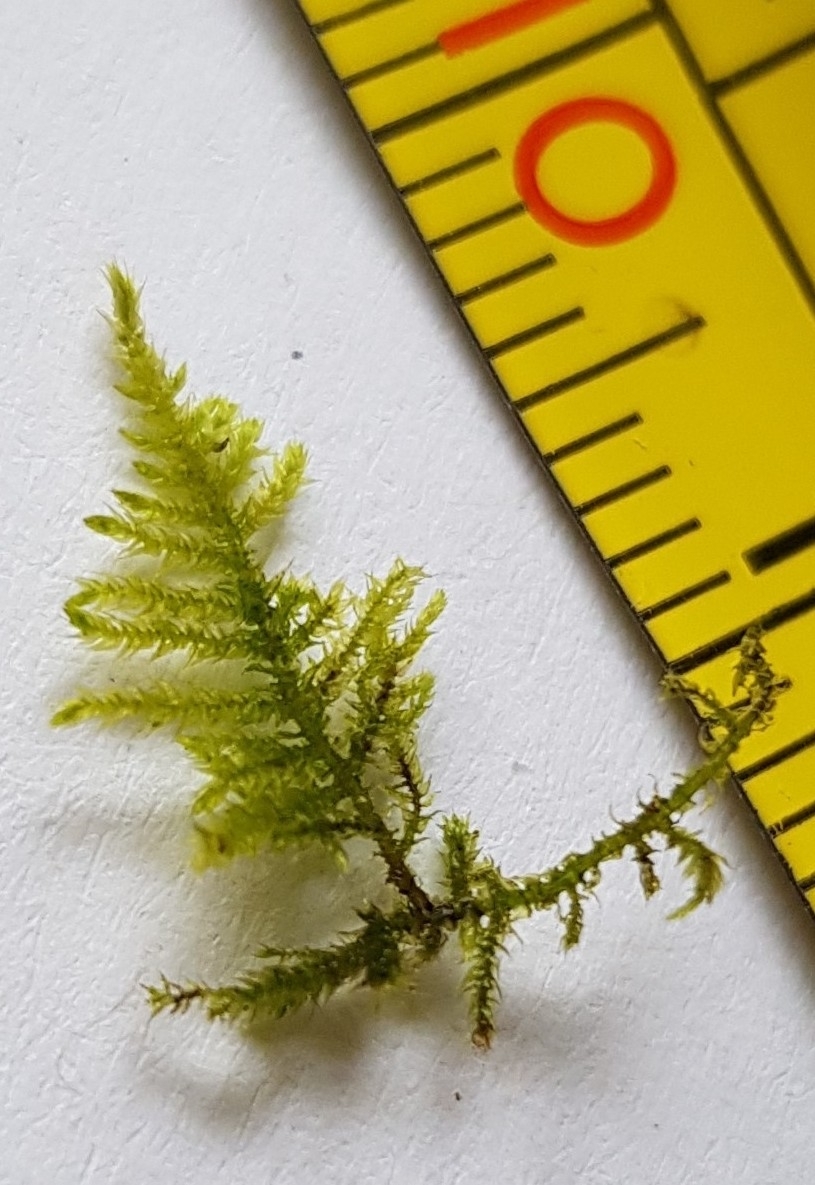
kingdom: Plantae
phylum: Bryophyta
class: Bryopsida
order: Hypnales
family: Brachytheciaceae
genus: Kindbergia
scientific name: Kindbergia praelonga
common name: Slender beaked moss
